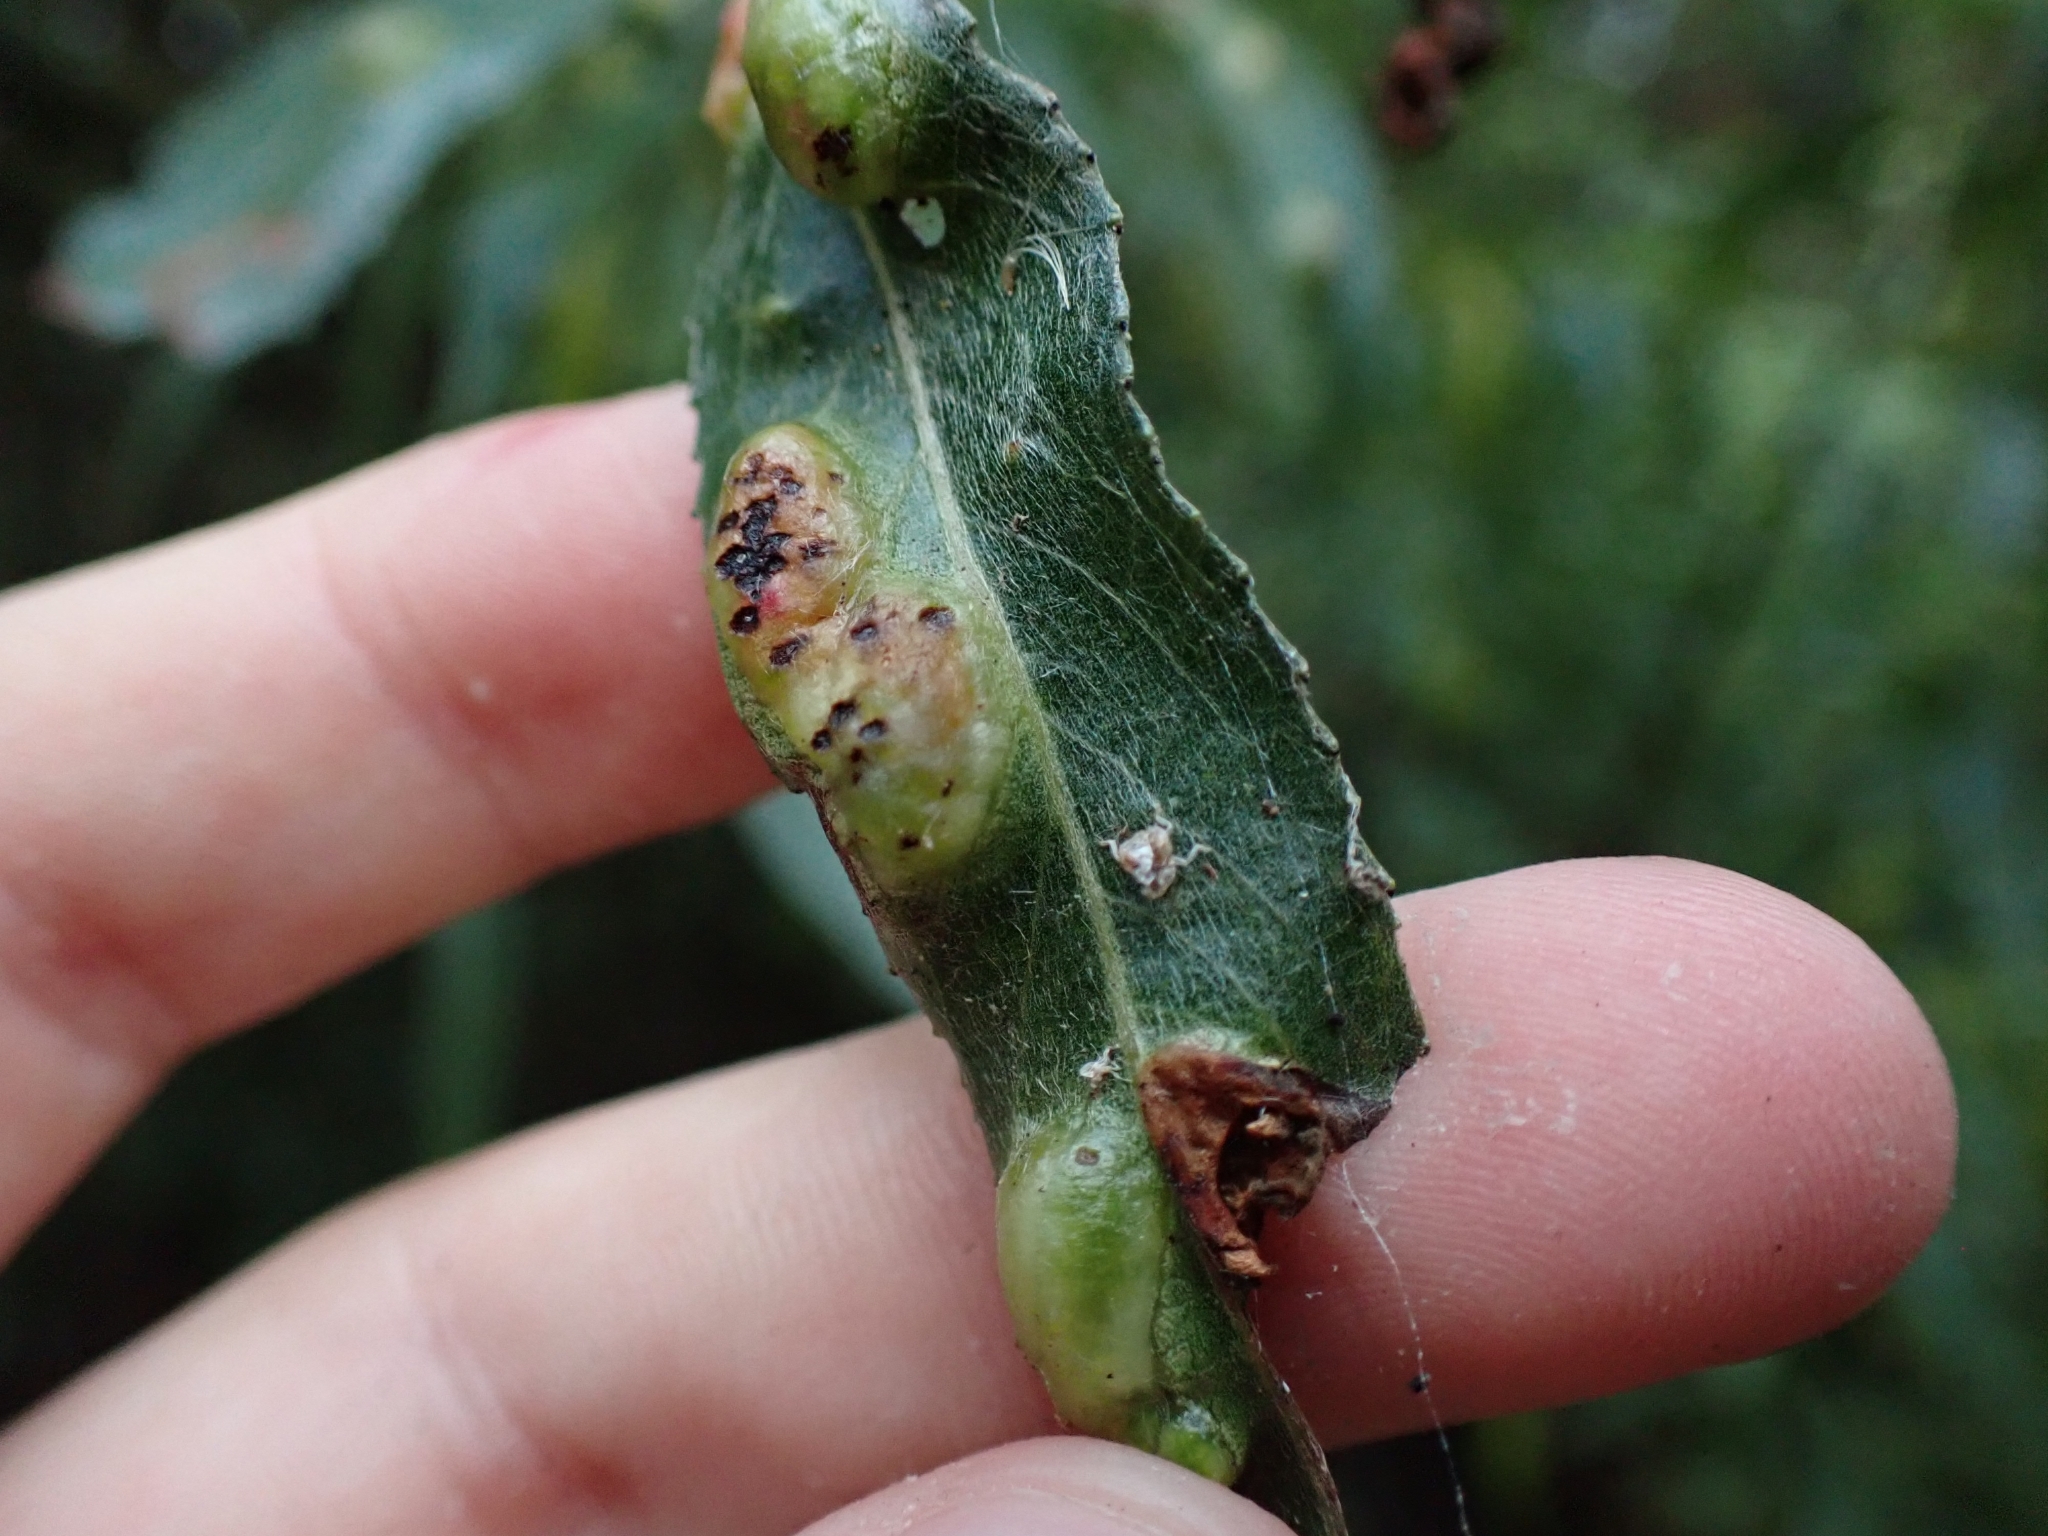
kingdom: Animalia
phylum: Arthropoda
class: Insecta
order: Hymenoptera
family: Tenthredinidae
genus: Pontania
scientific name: Pontania proxima
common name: Common sawfly
